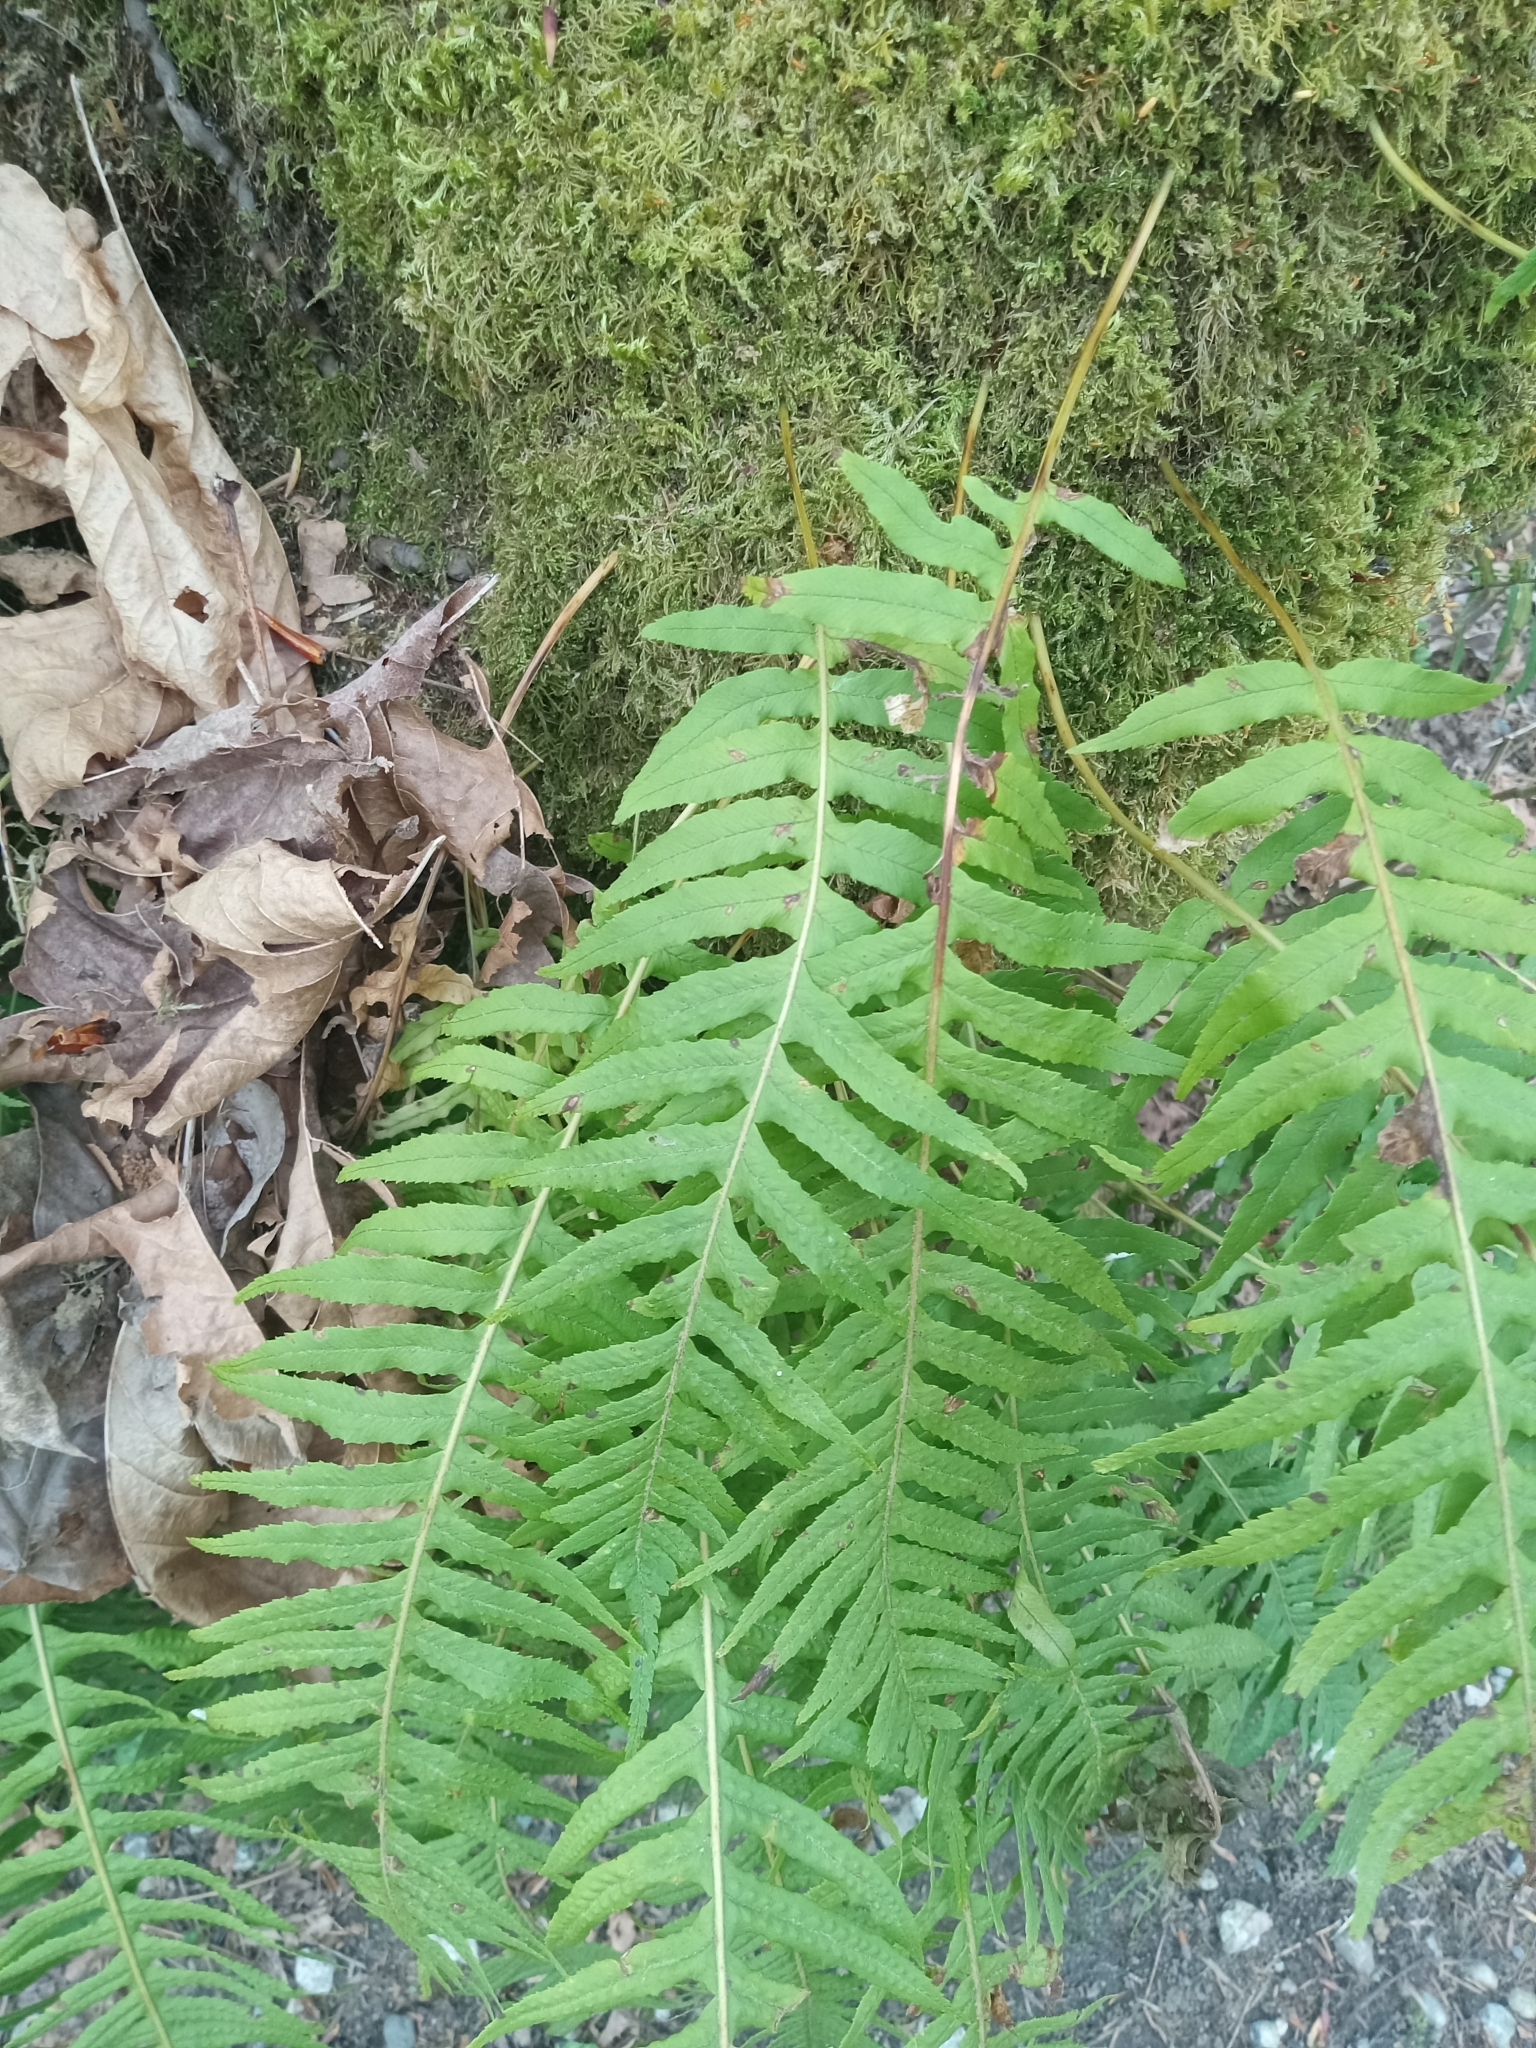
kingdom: Plantae
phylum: Tracheophyta
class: Polypodiopsida
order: Polypodiales
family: Polypodiaceae
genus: Polypodium
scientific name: Polypodium glycyrrhiza
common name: Licorice fern
